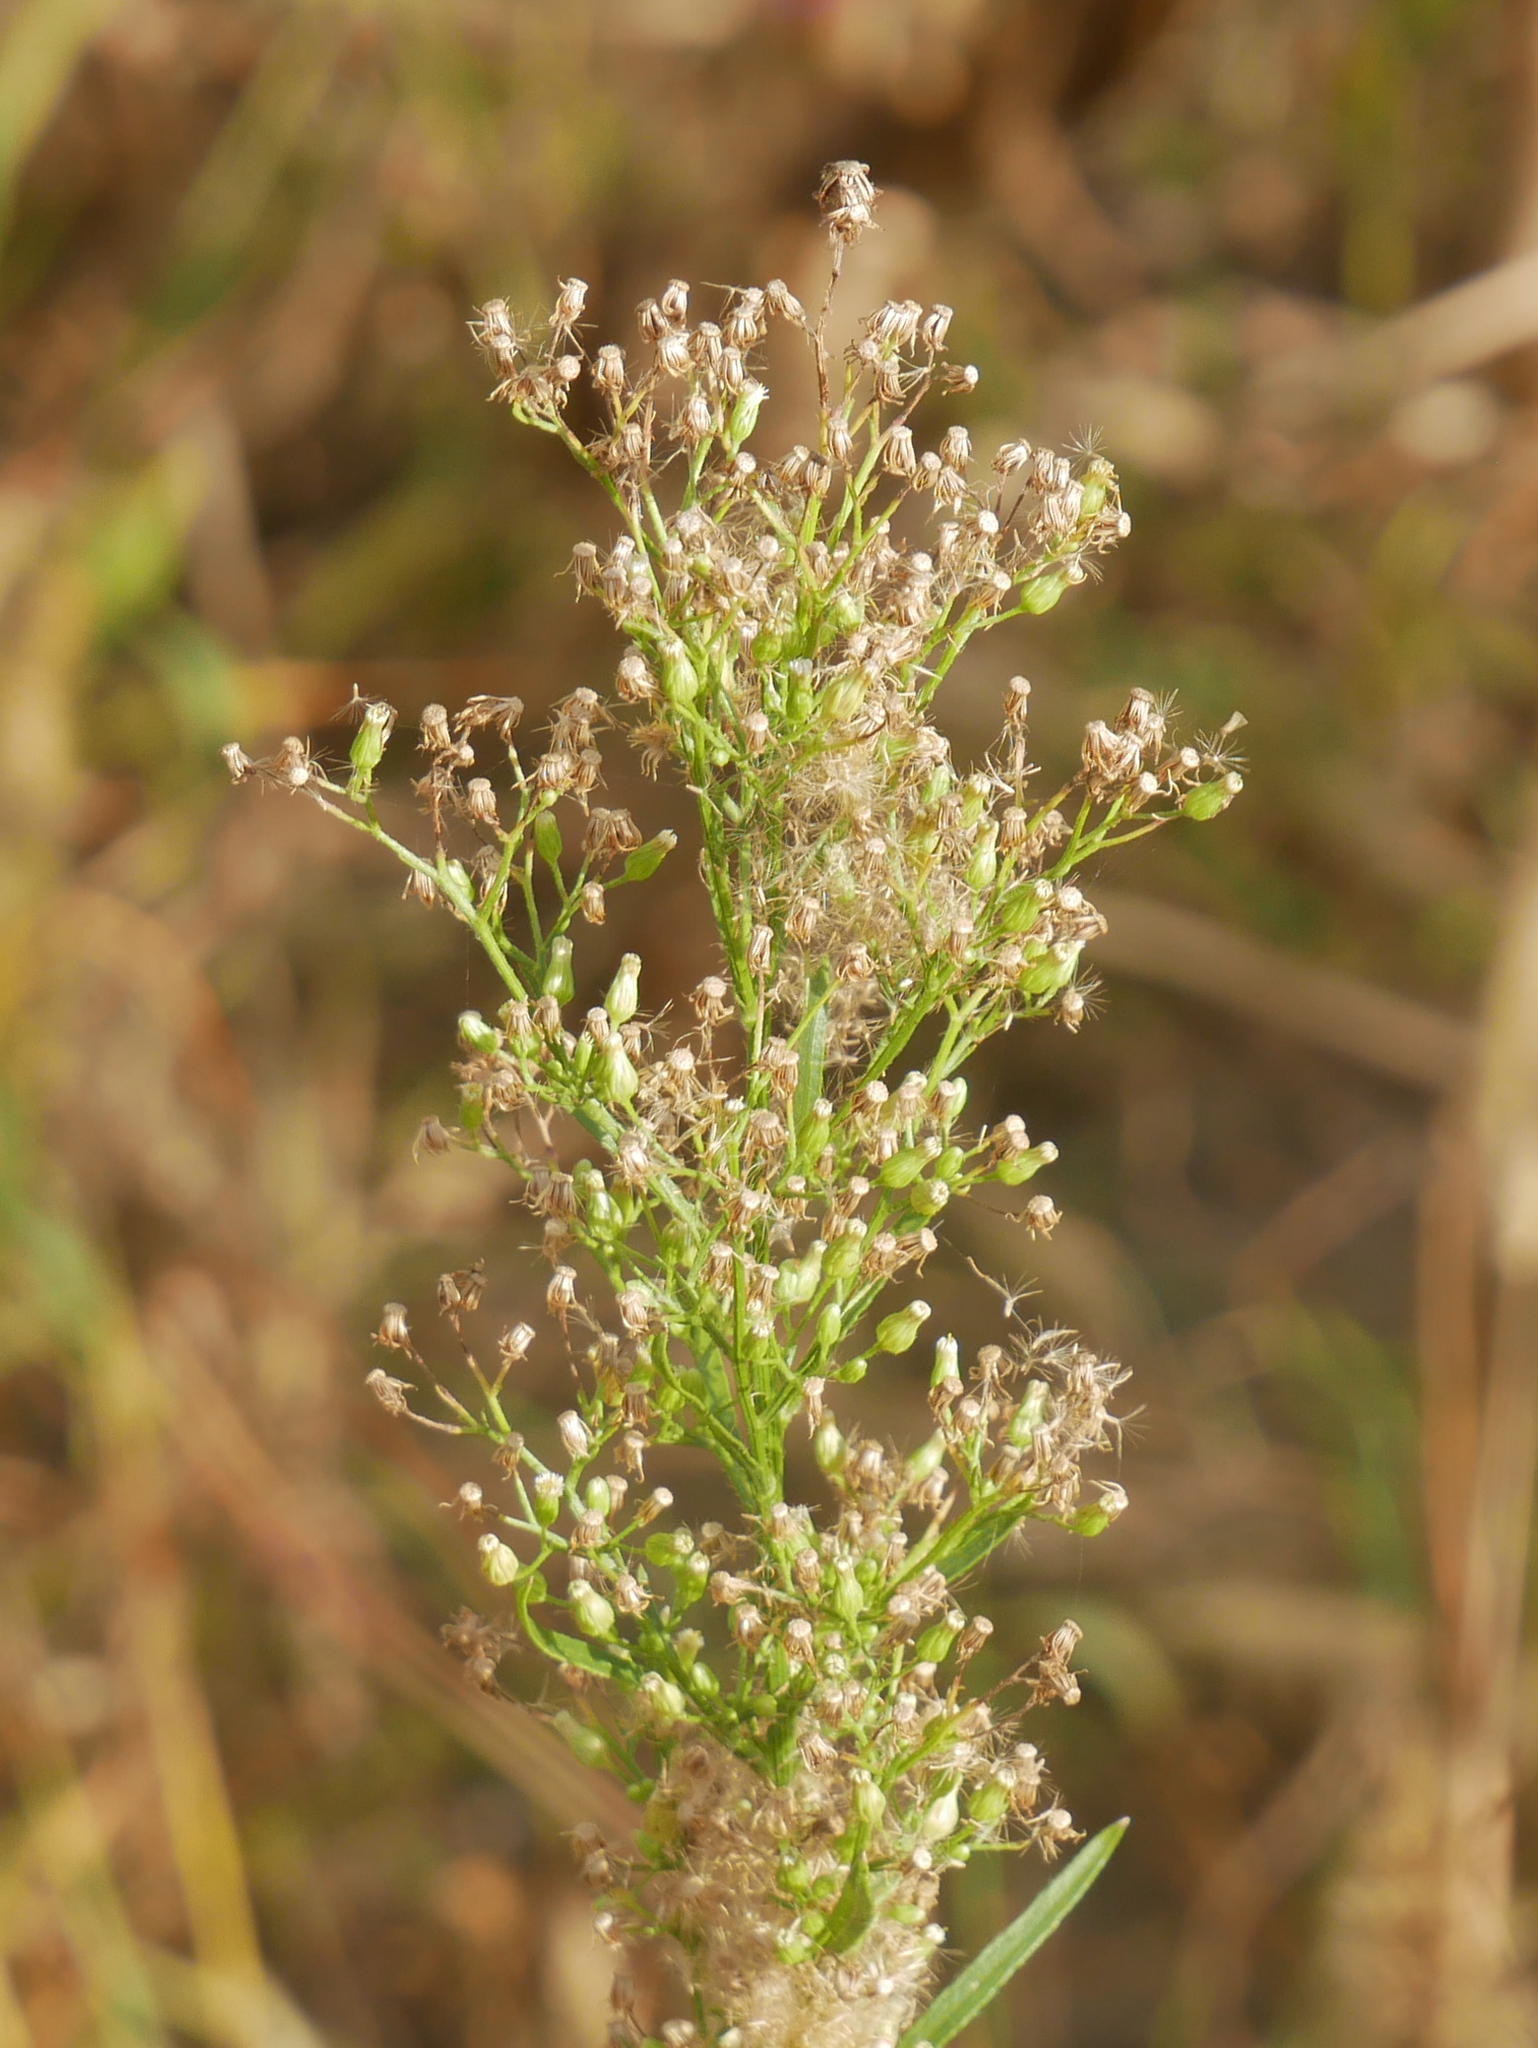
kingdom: Plantae
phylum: Tracheophyta
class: Magnoliopsida
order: Asterales
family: Asteraceae
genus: Erigeron
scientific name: Erigeron canadensis
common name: Canadian fleabane
